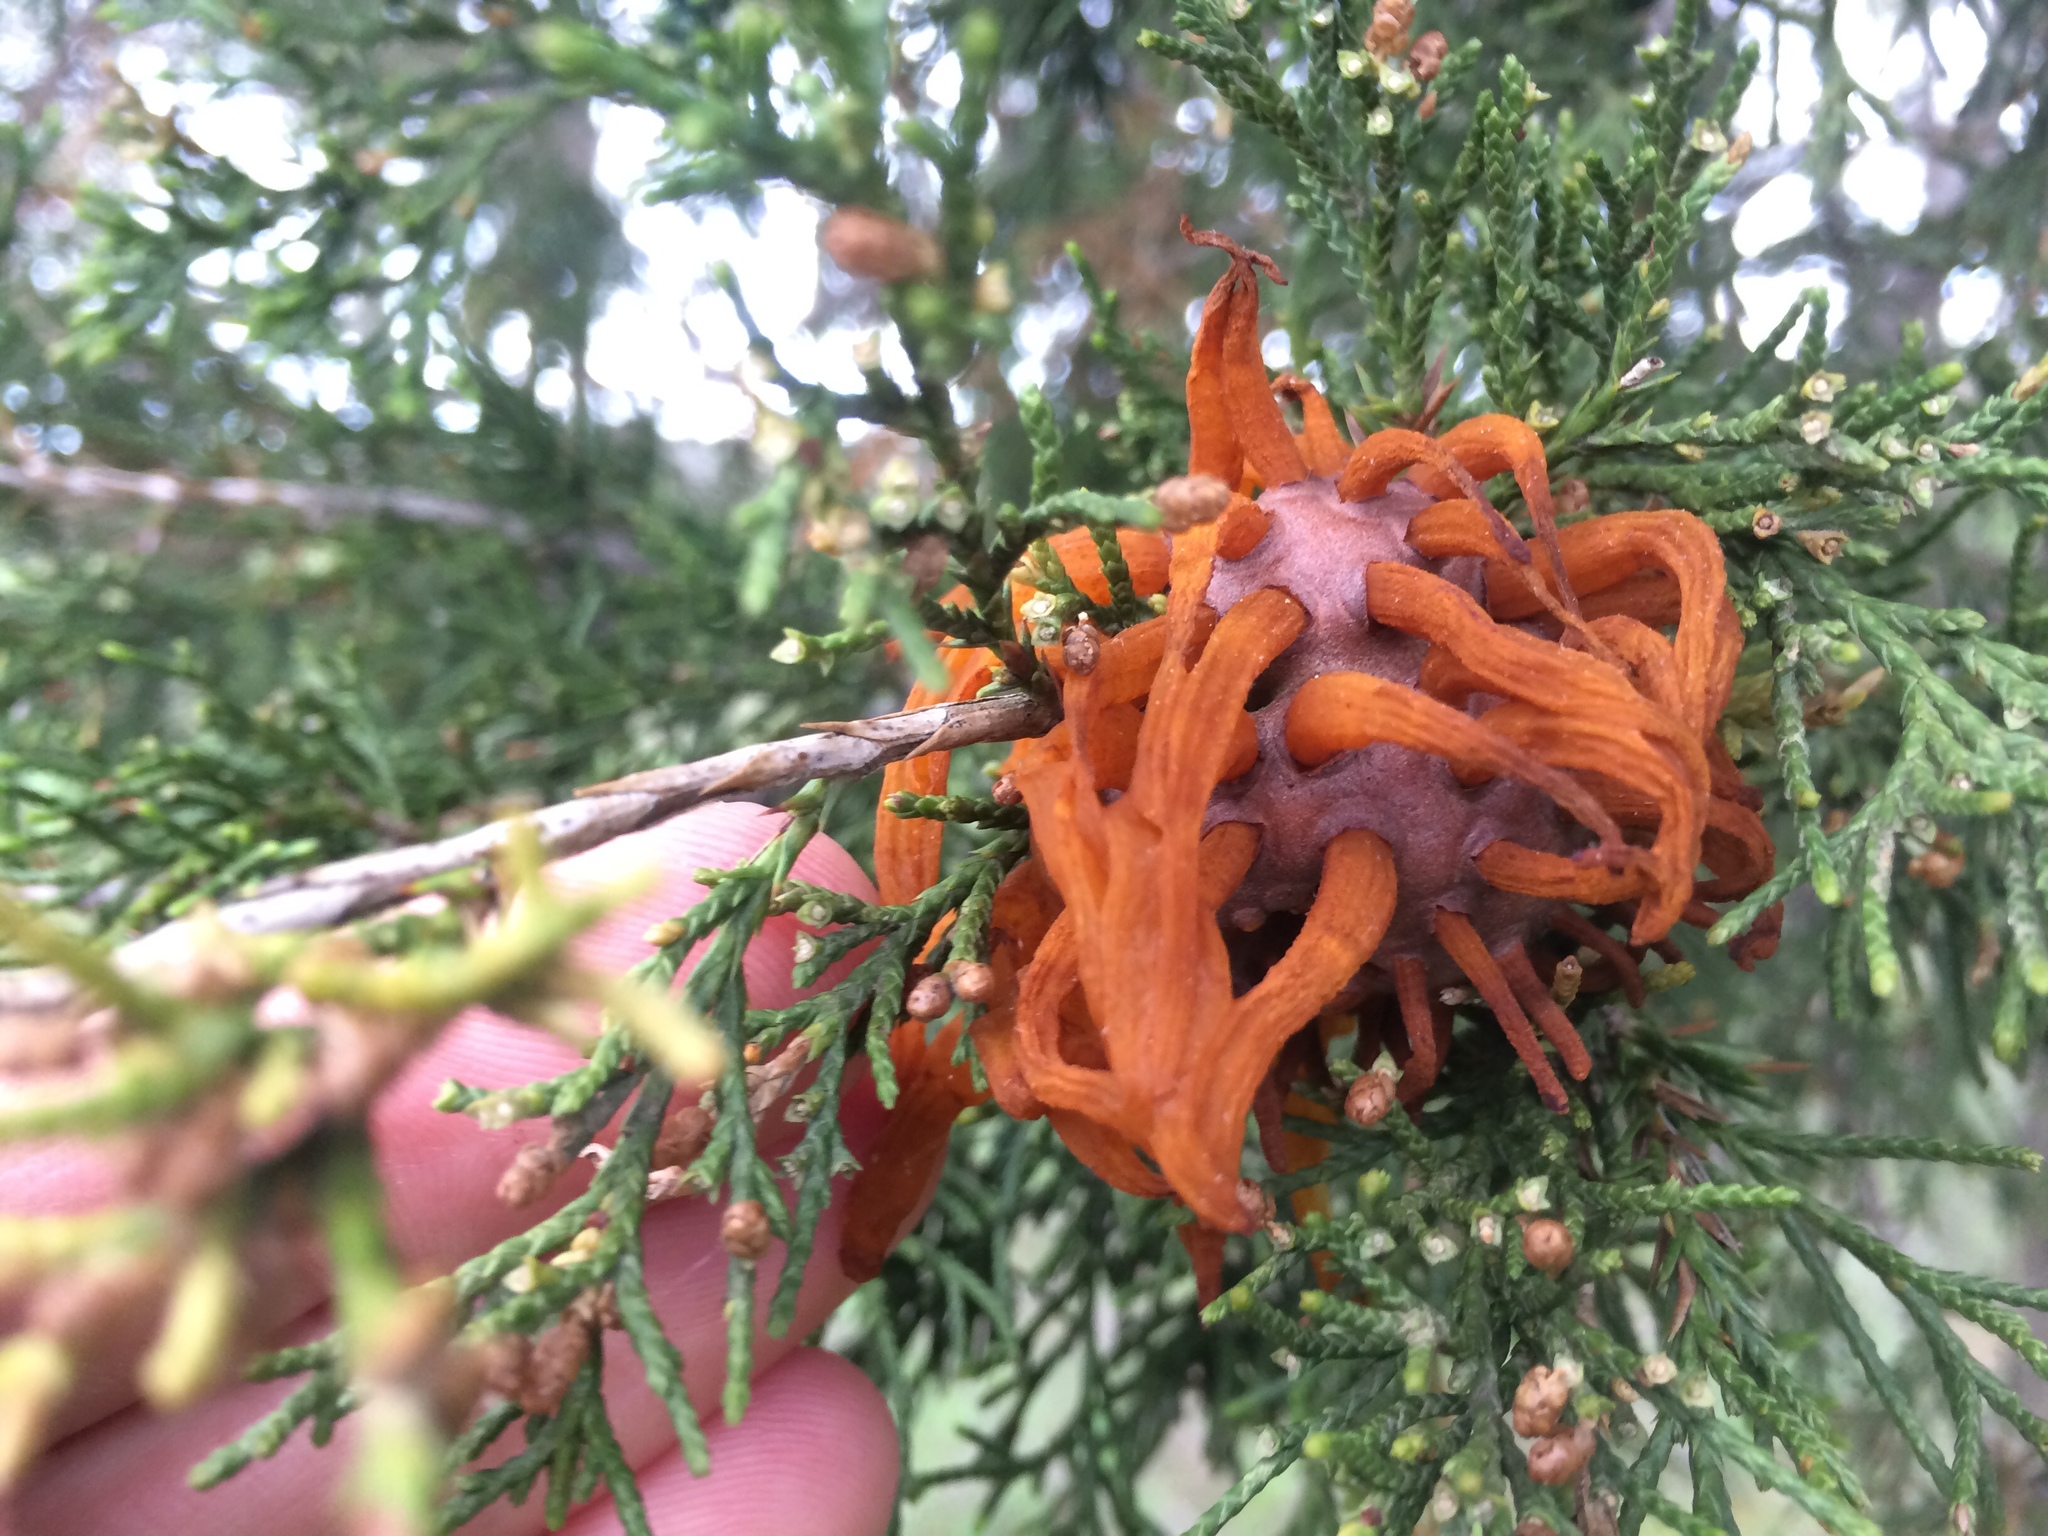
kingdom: Fungi
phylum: Basidiomycota
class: Pucciniomycetes
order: Pucciniales
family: Gymnosporangiaceae
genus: Gymnosporangium
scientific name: Gymnosporangium juniperi-virginianae
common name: Juniper-apple rust
